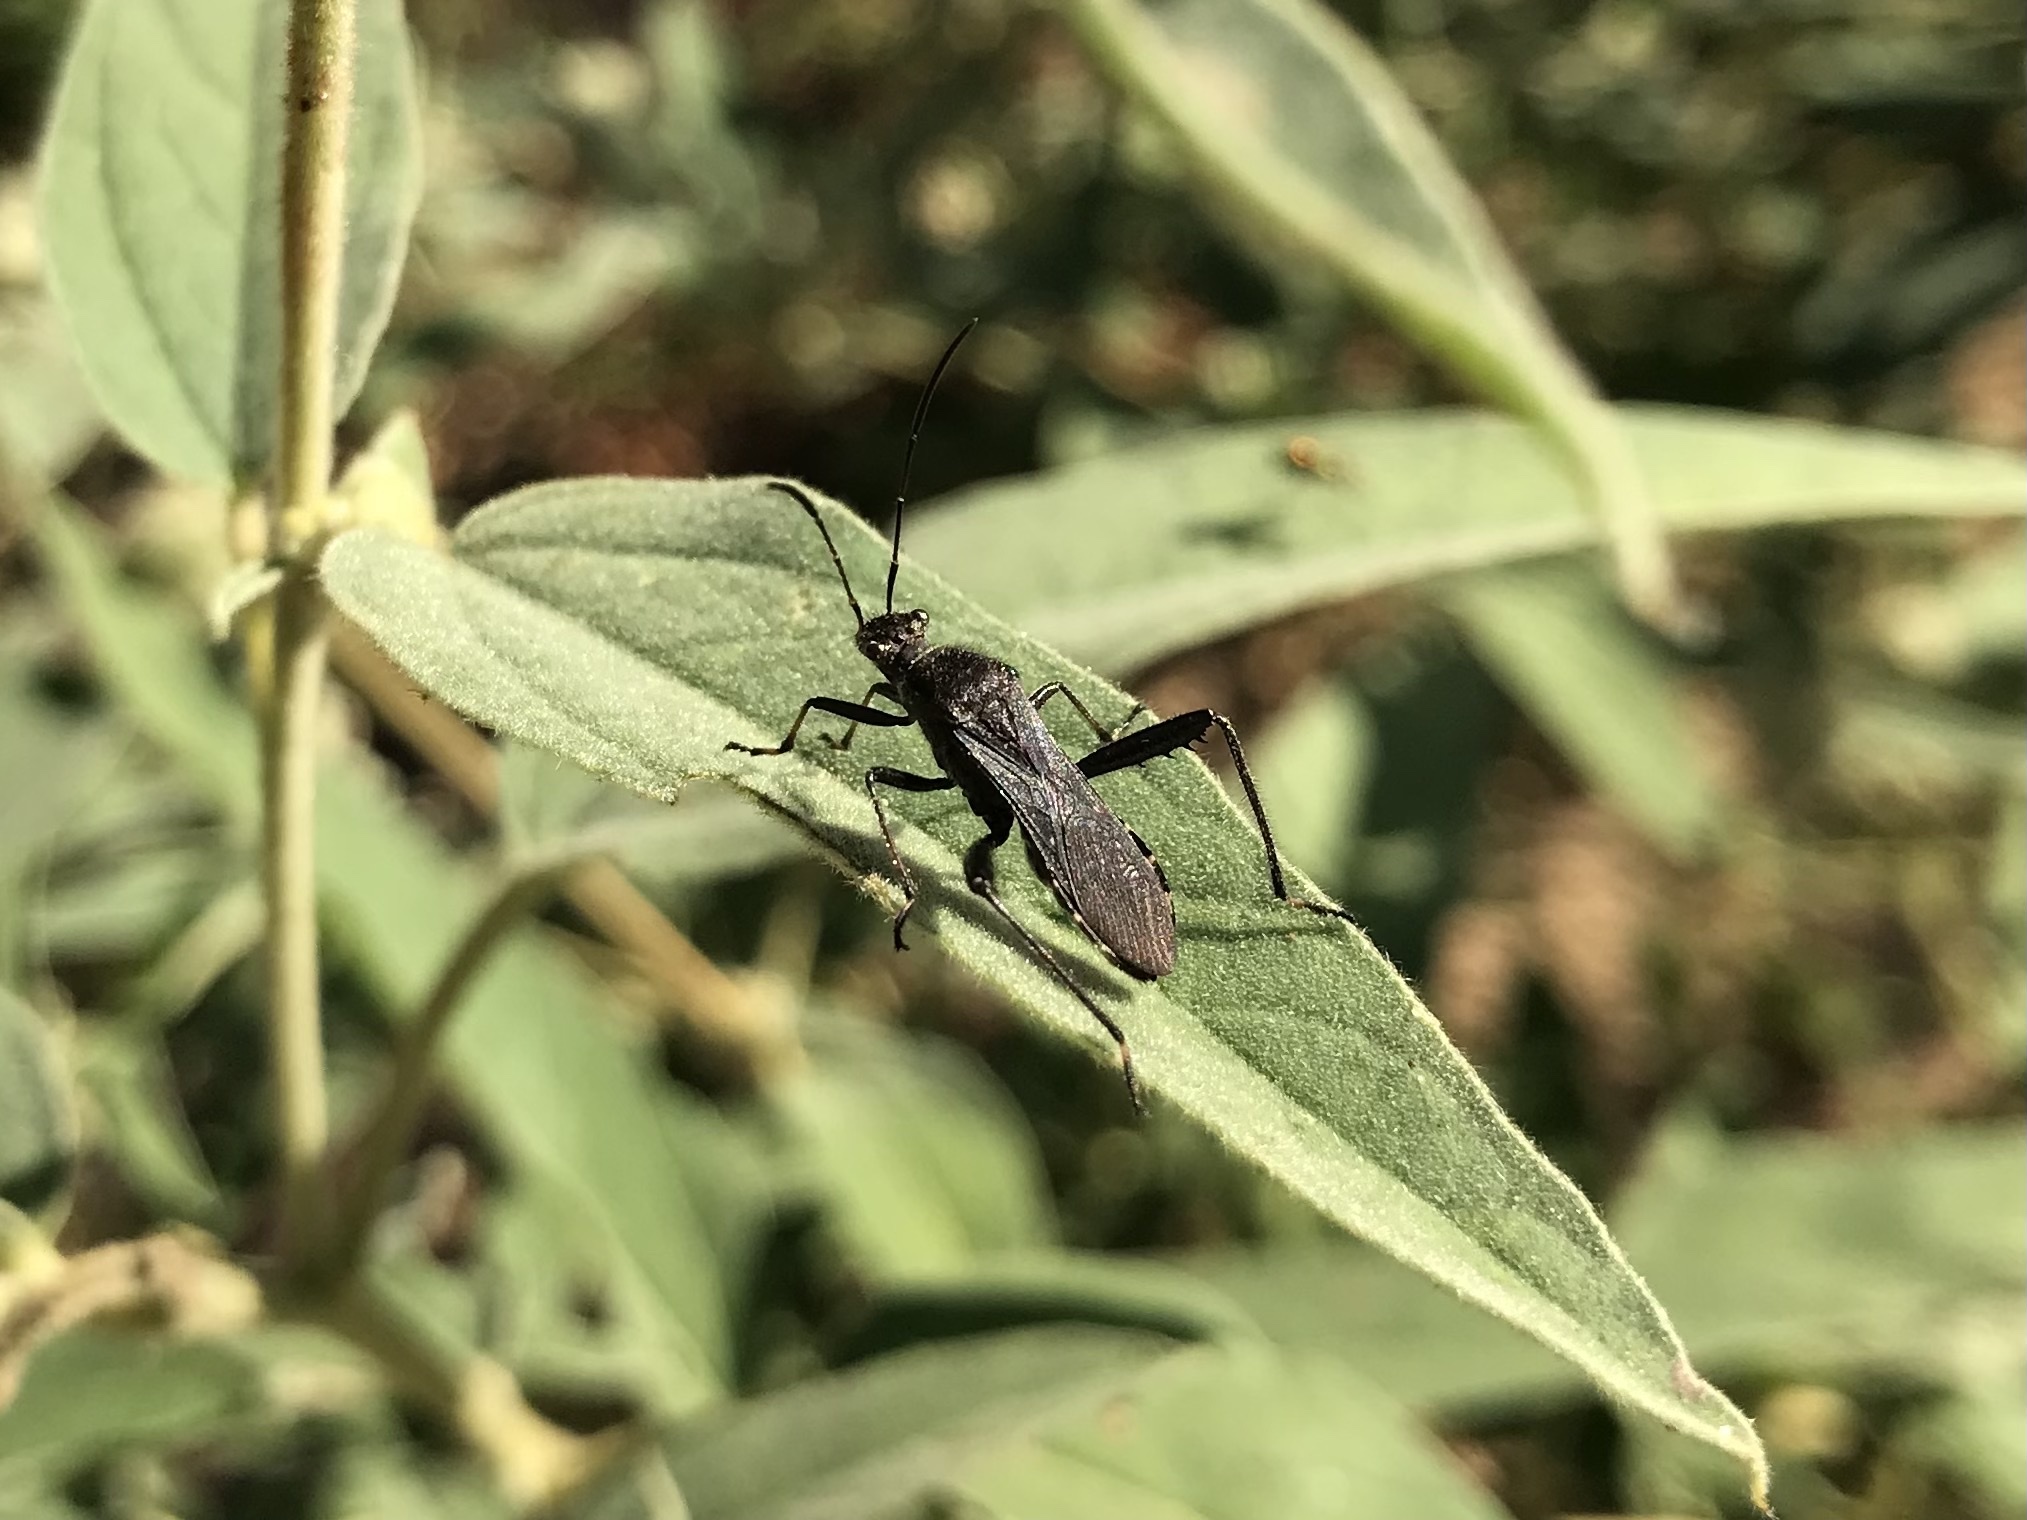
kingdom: Animalia
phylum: Arthropoda
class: Insecta
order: Hemiptera
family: Alydidae
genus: Alydus
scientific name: Alydus eurinus
